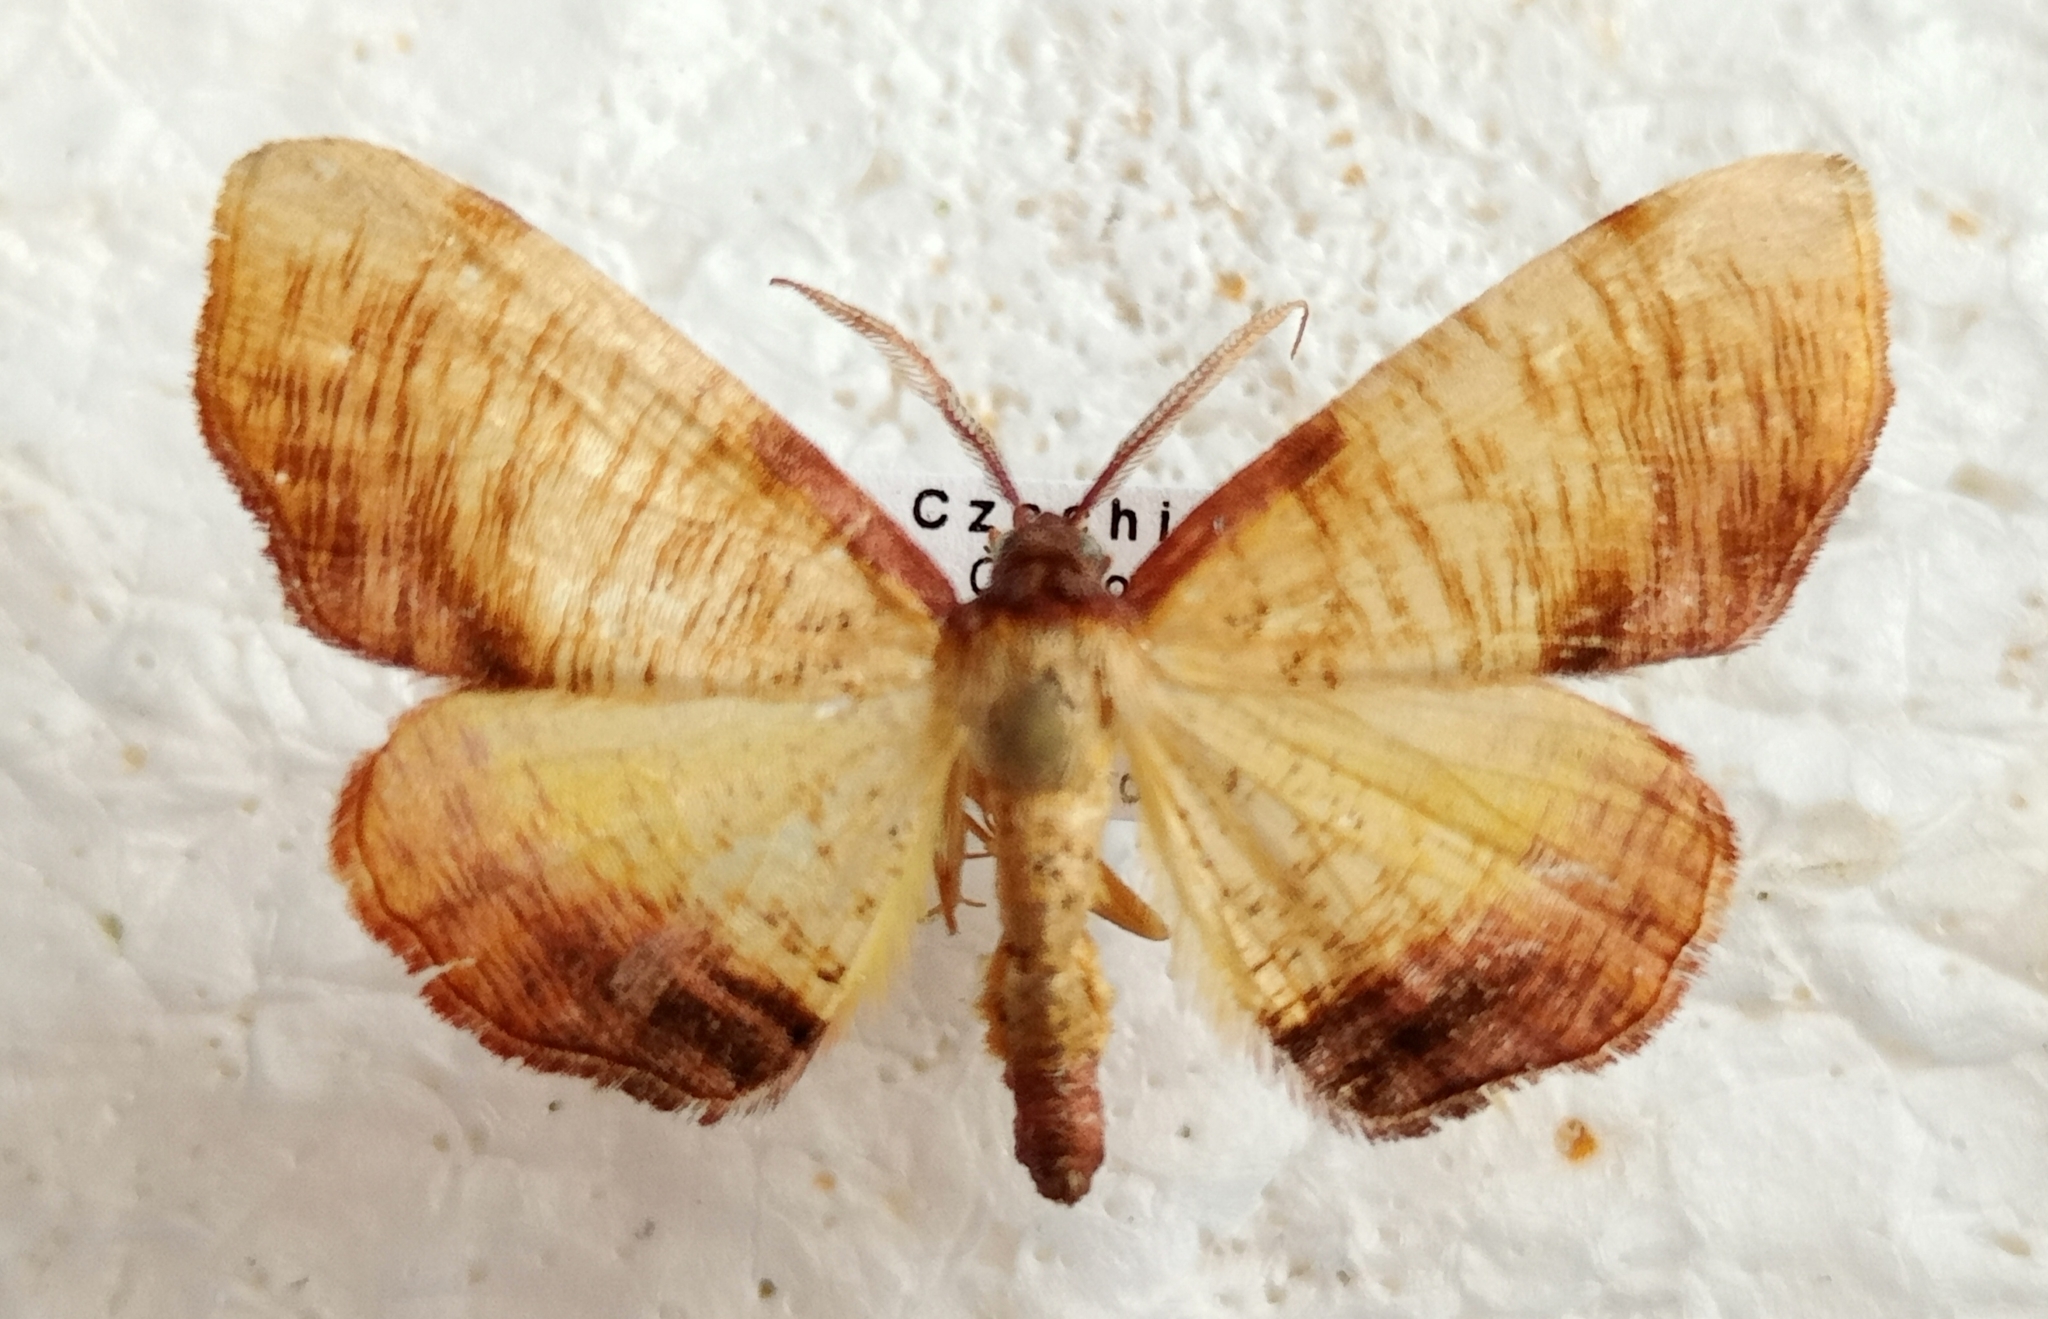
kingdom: Animalia
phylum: Arthropoda
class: Insecta
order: Lepidoptera
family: Geometridae
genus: Plagodis
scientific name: Plagodis dolabraria
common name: Scorched wing
